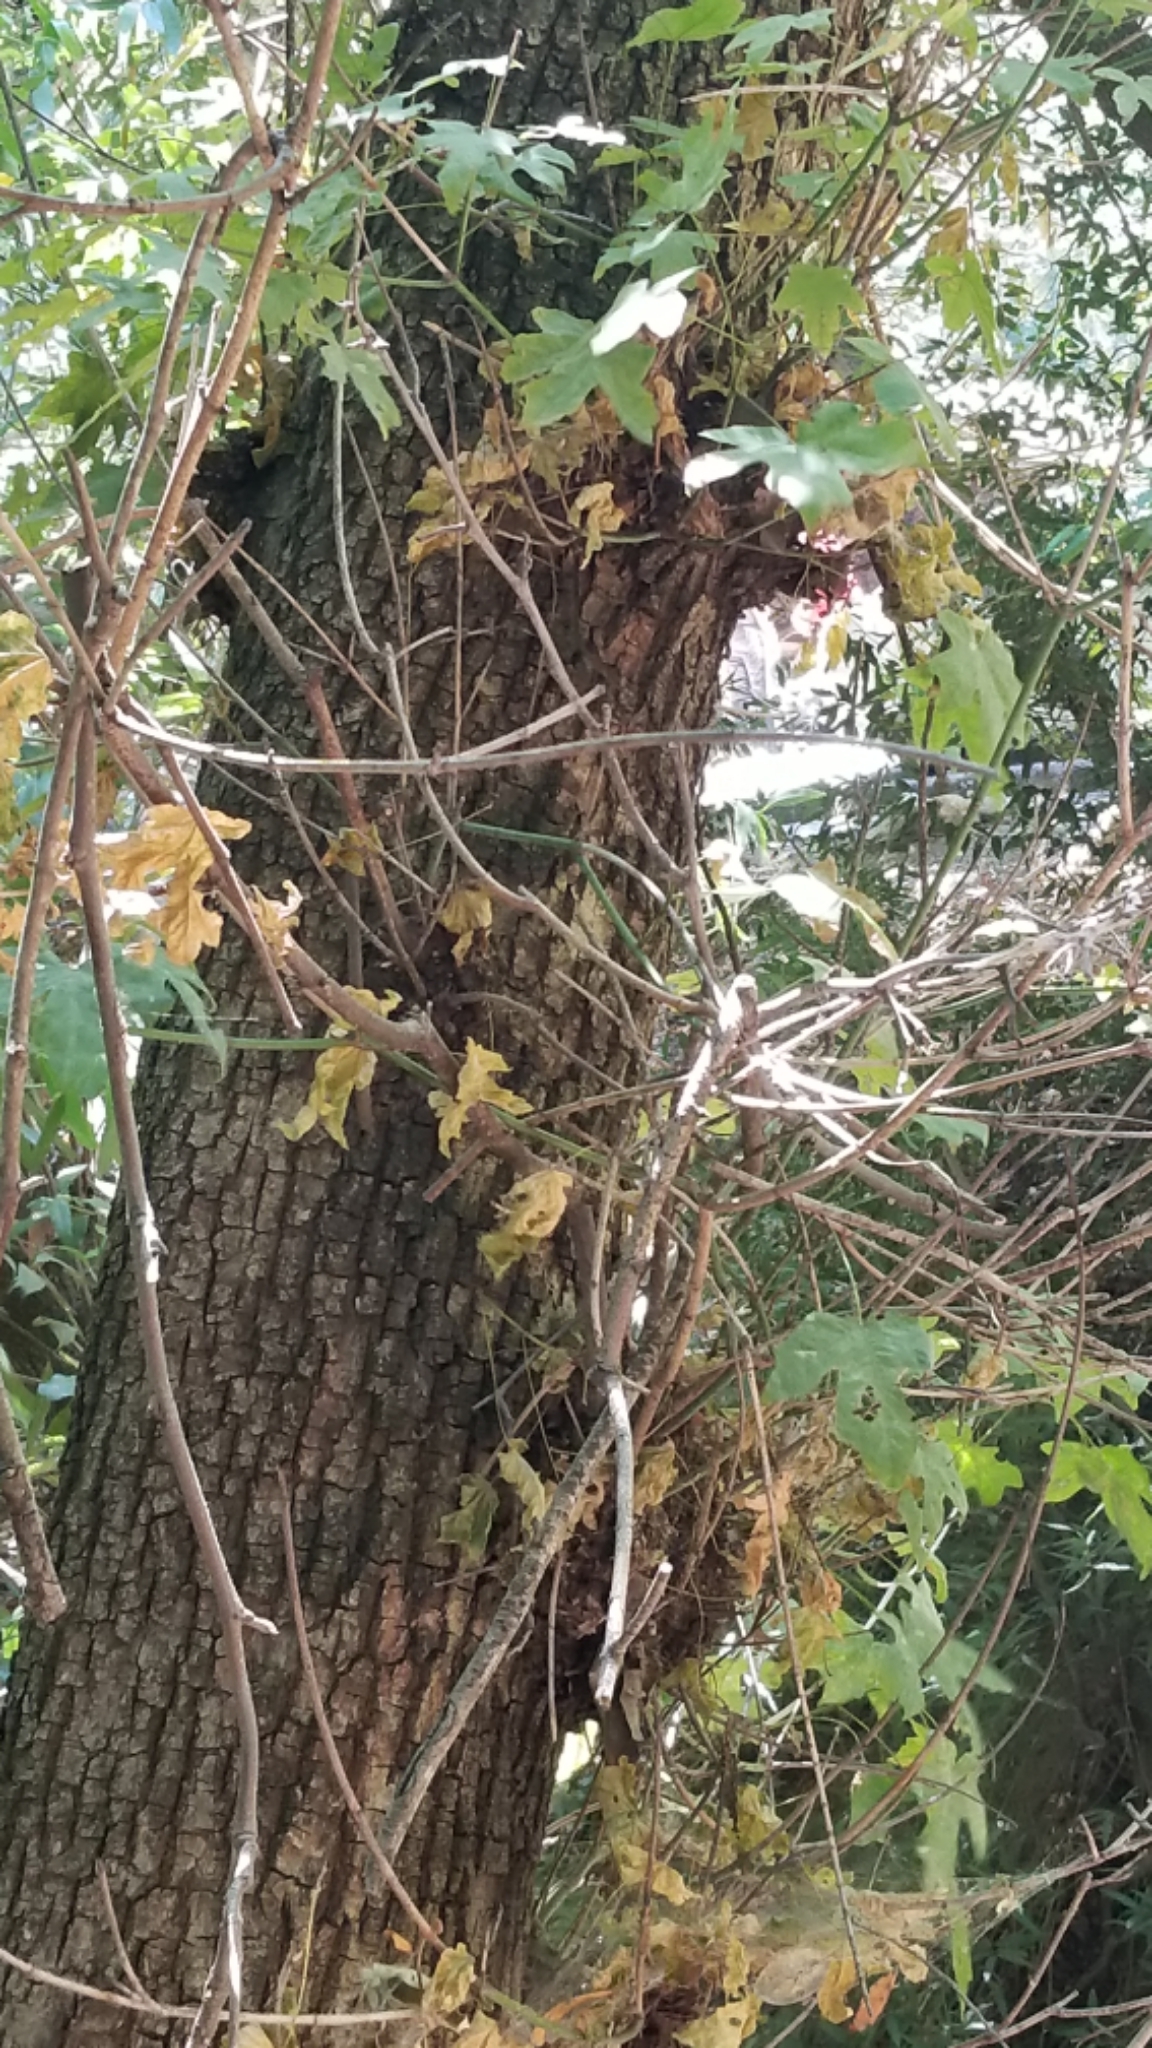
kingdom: Plantae
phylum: Tracheophyta
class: Magnoliopsida
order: Sapindales
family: Sapindaceae
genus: Acer
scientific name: Acer macrophyllum
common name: Oregon maple
